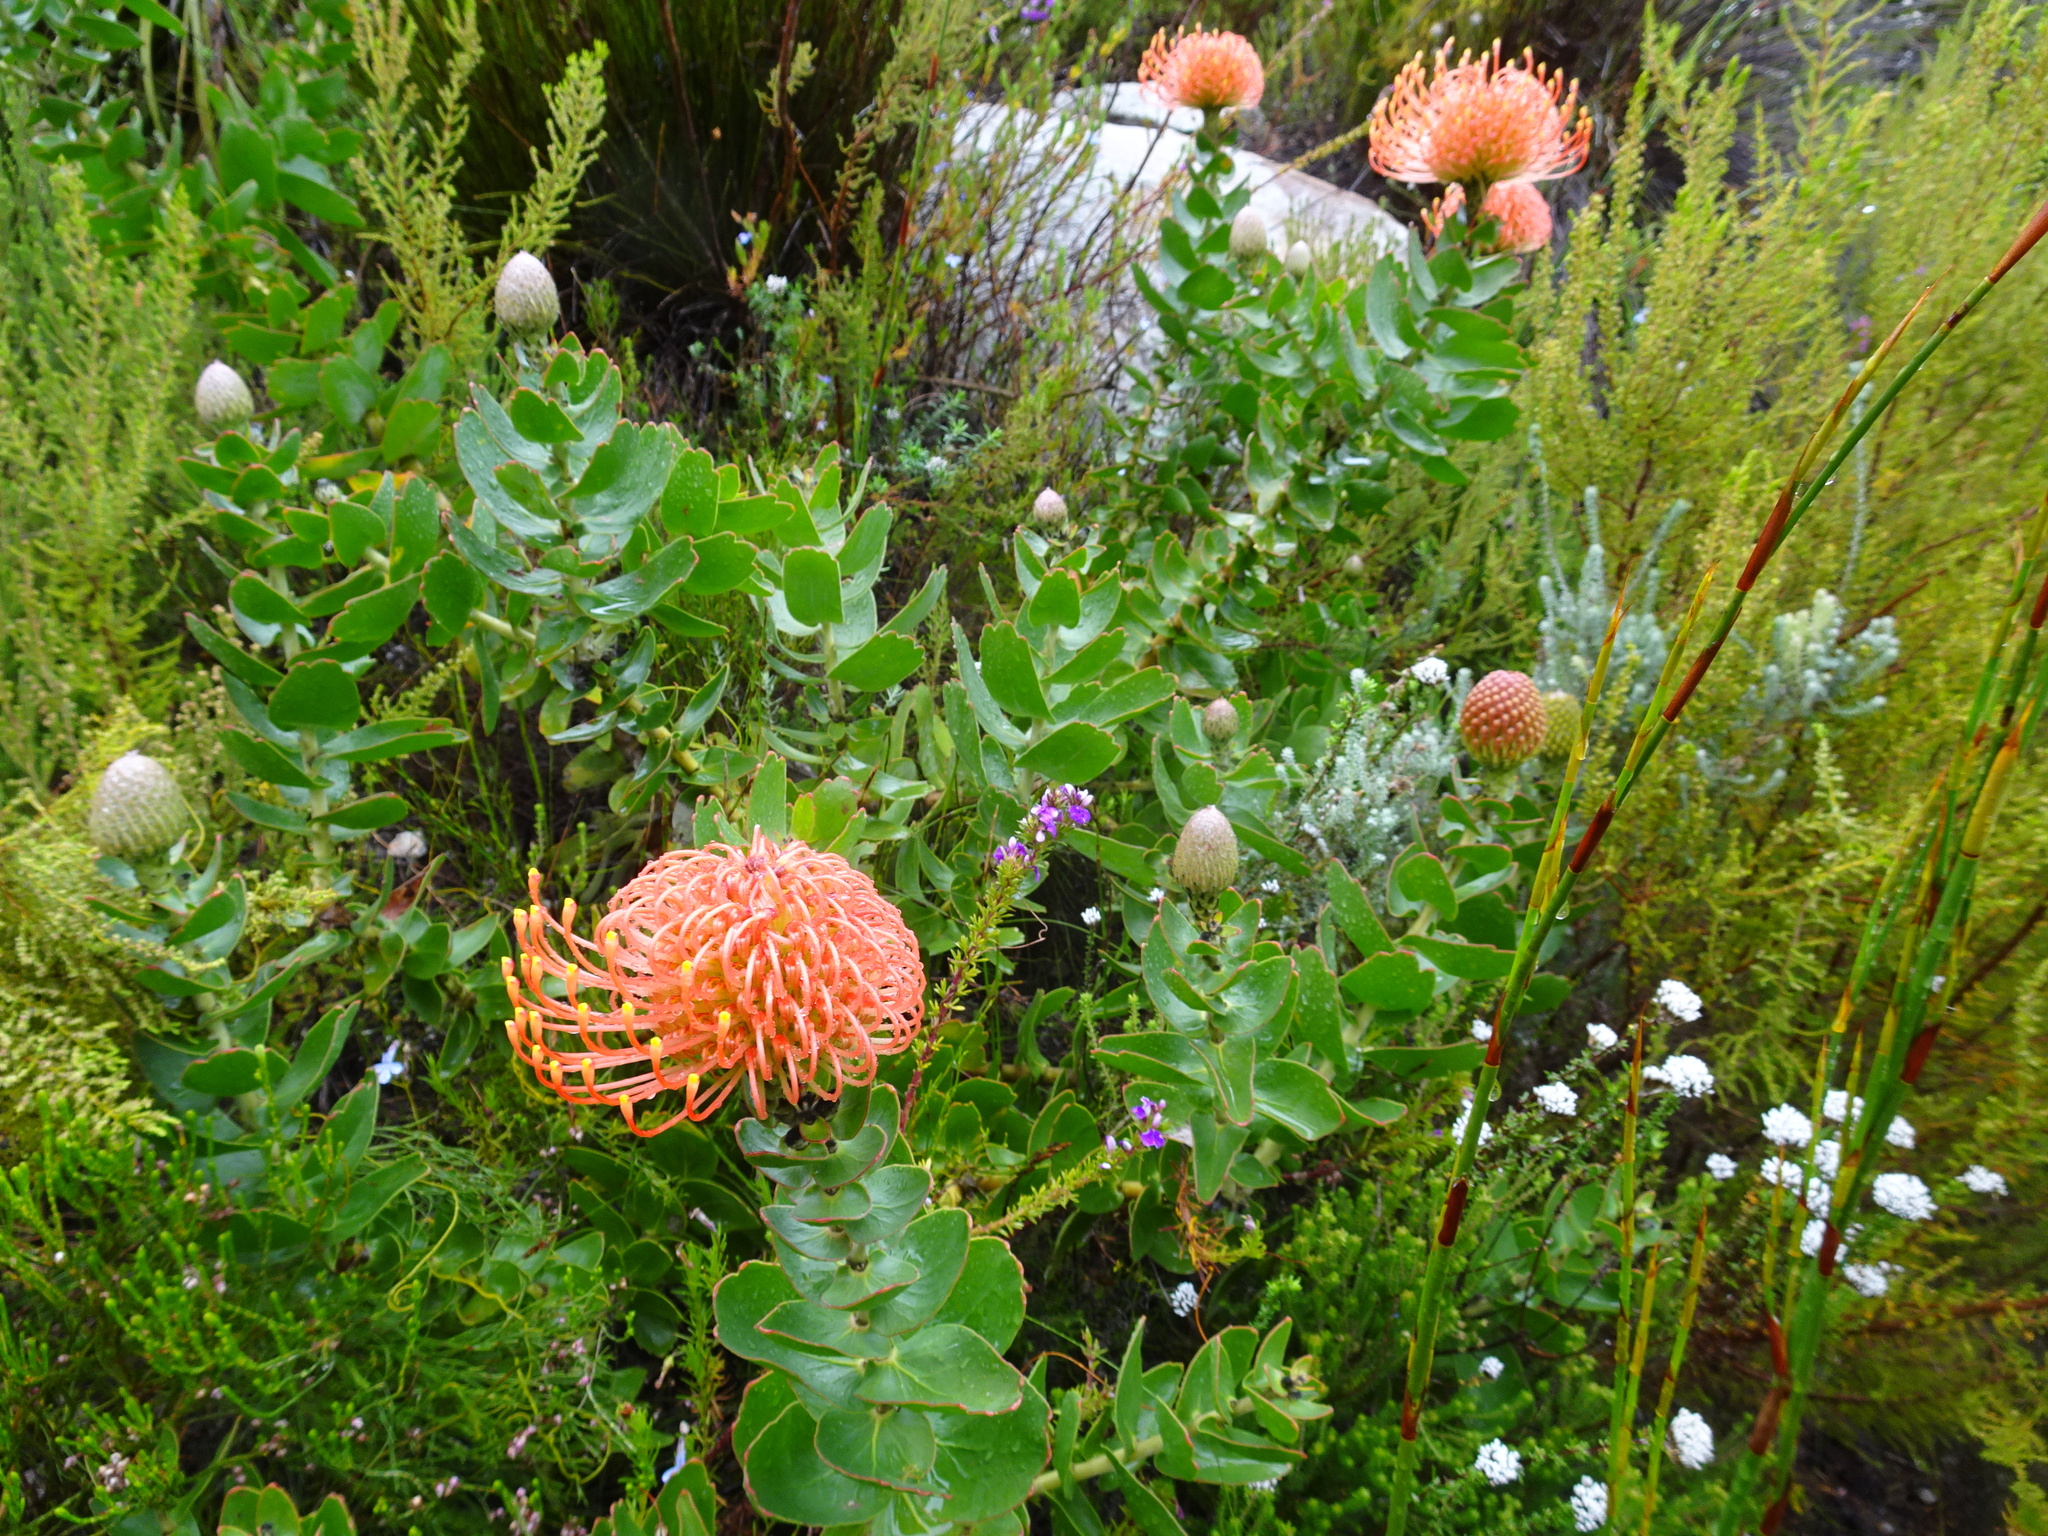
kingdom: Plantae
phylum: Tracheophyta
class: Magnoliopsida
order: Proteales
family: Proteaceae
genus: Leucospermum
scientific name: Leucospermum cordifolium
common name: Red pincushion-protea
